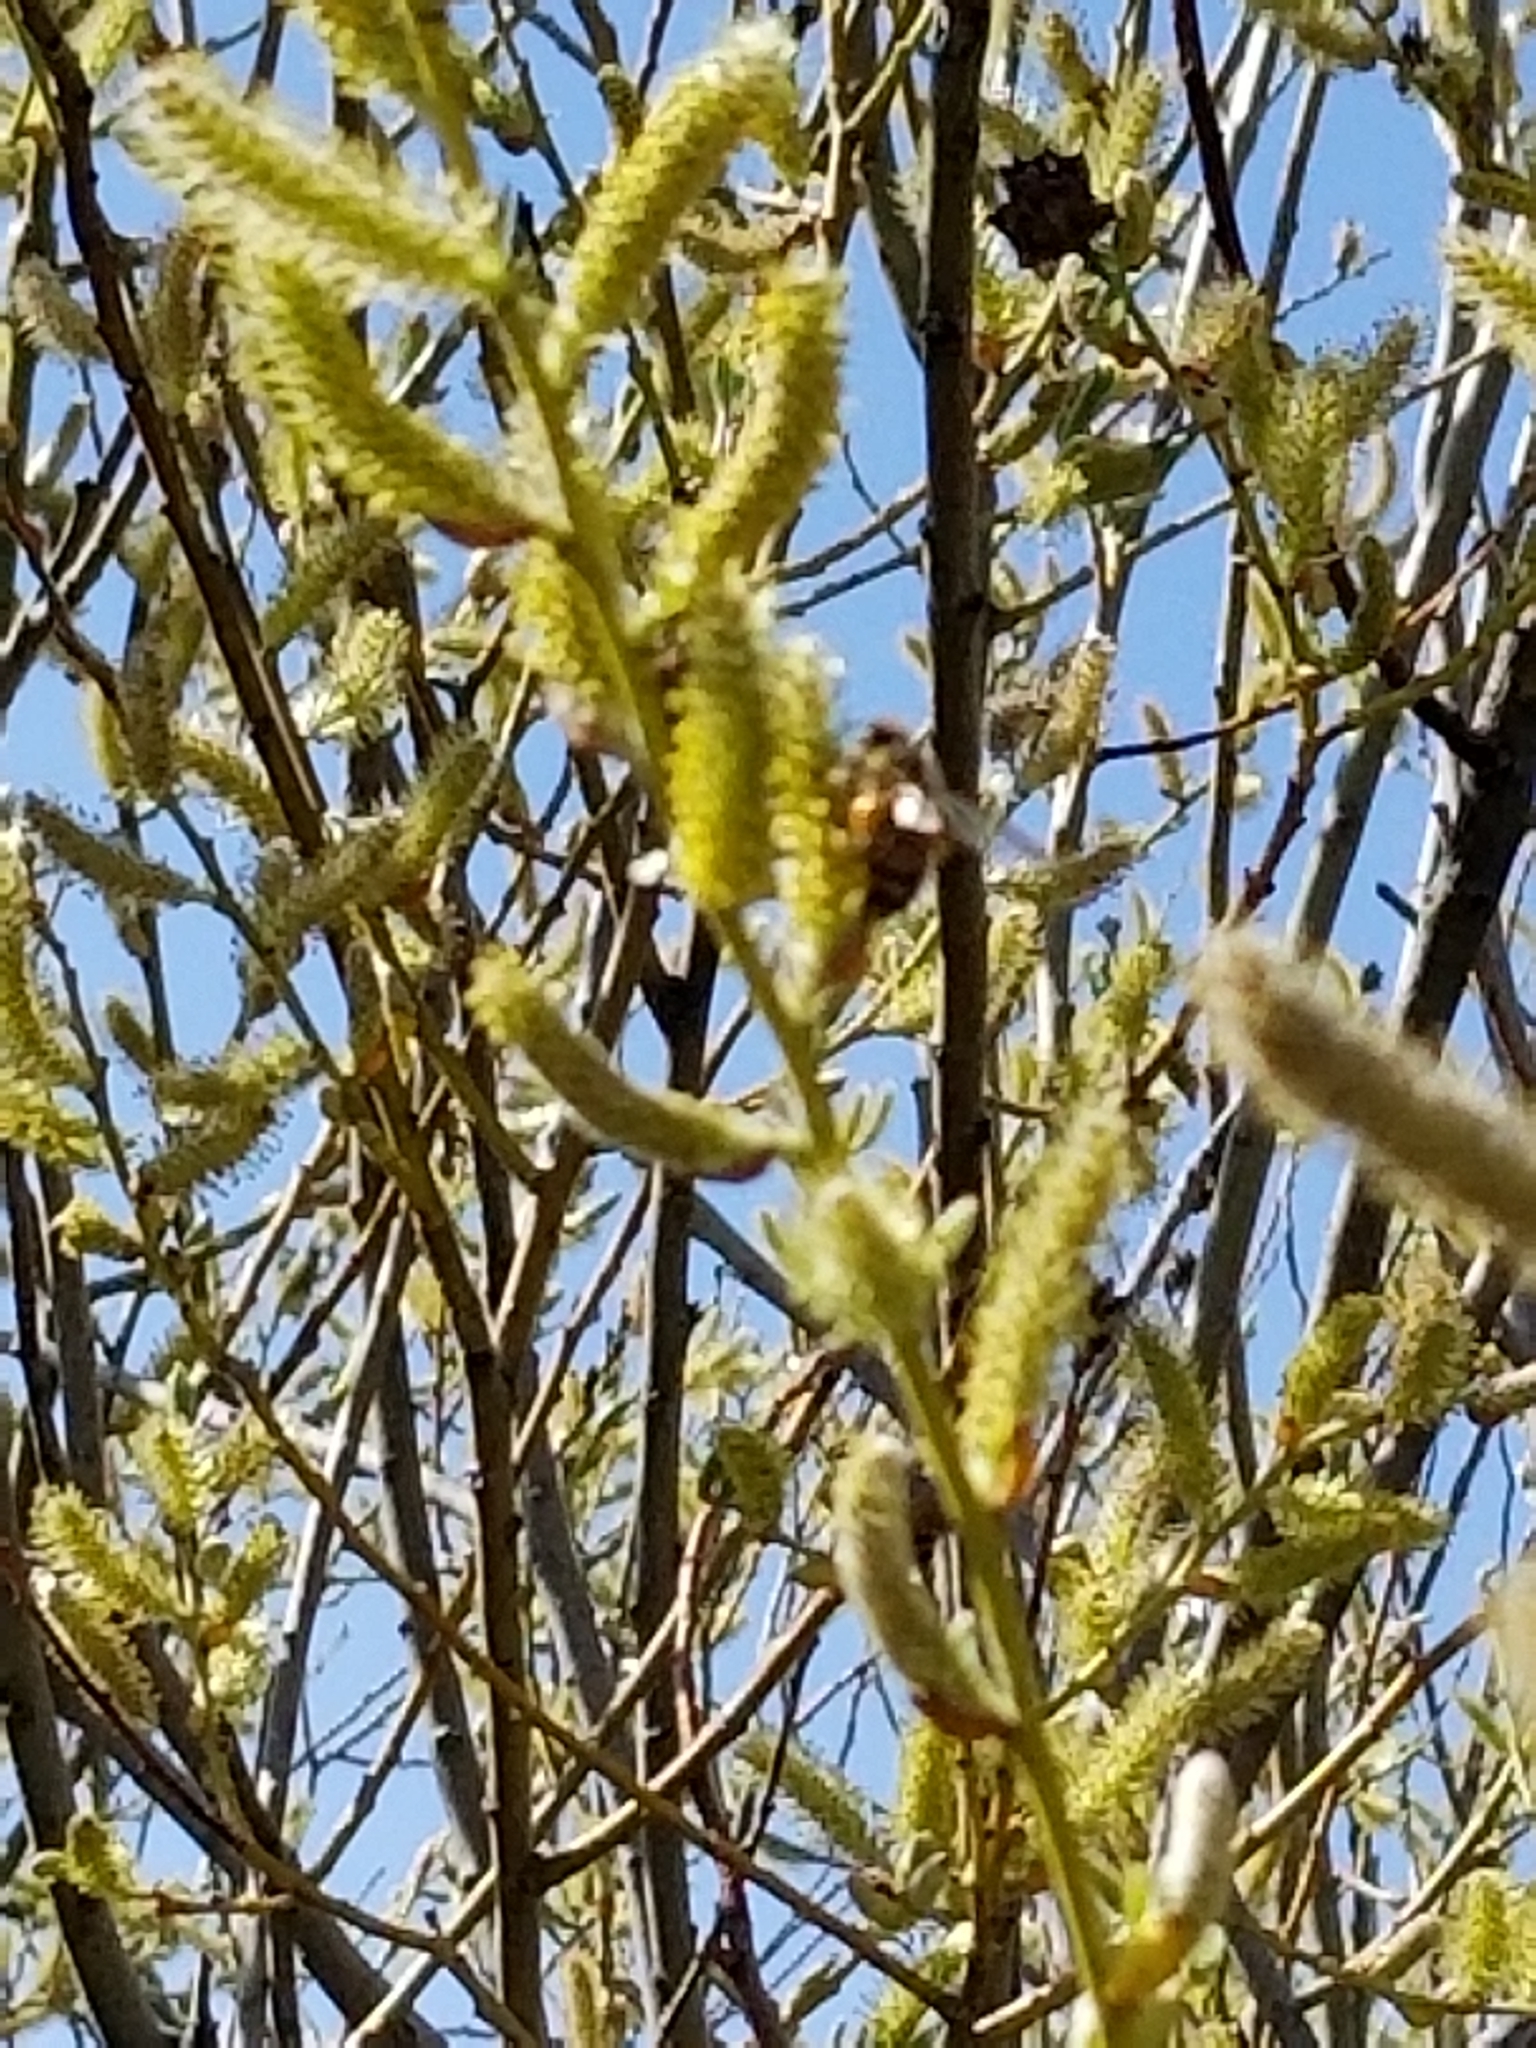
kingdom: Animalia
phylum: Arthropoda
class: Insecta
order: Hymenoptera
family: Apidae
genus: Apis
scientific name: Apis mellifera
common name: Honey bee
